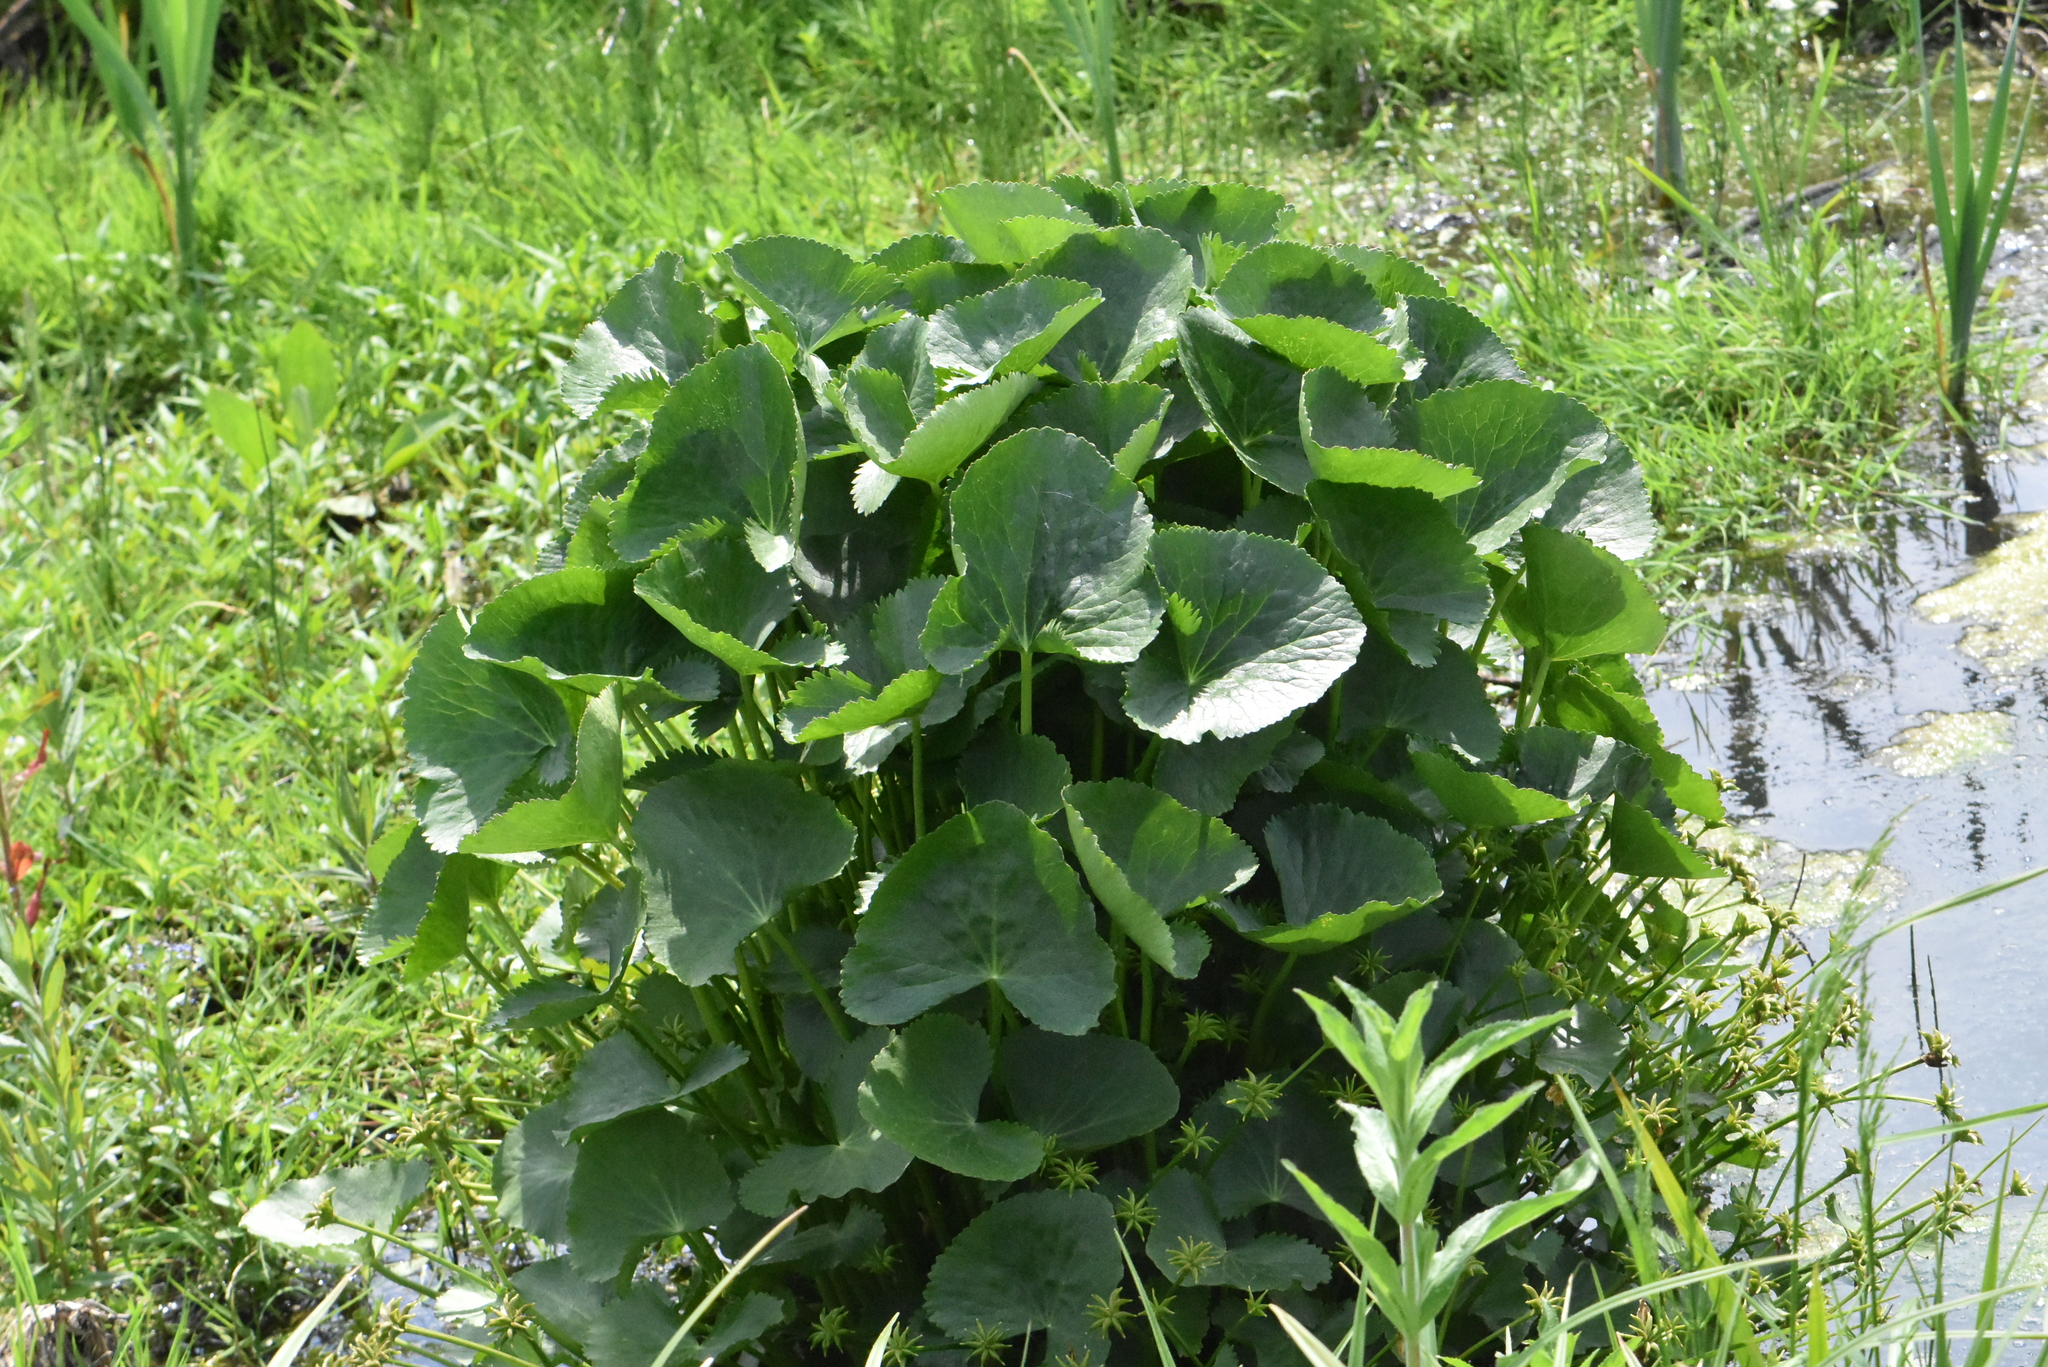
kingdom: Plantae
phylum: Tracheophyta
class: Magnoliopsida
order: Ranunculales
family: Ranunculaceae
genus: Caltha
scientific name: Caltha palustris
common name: Marsh marigold
